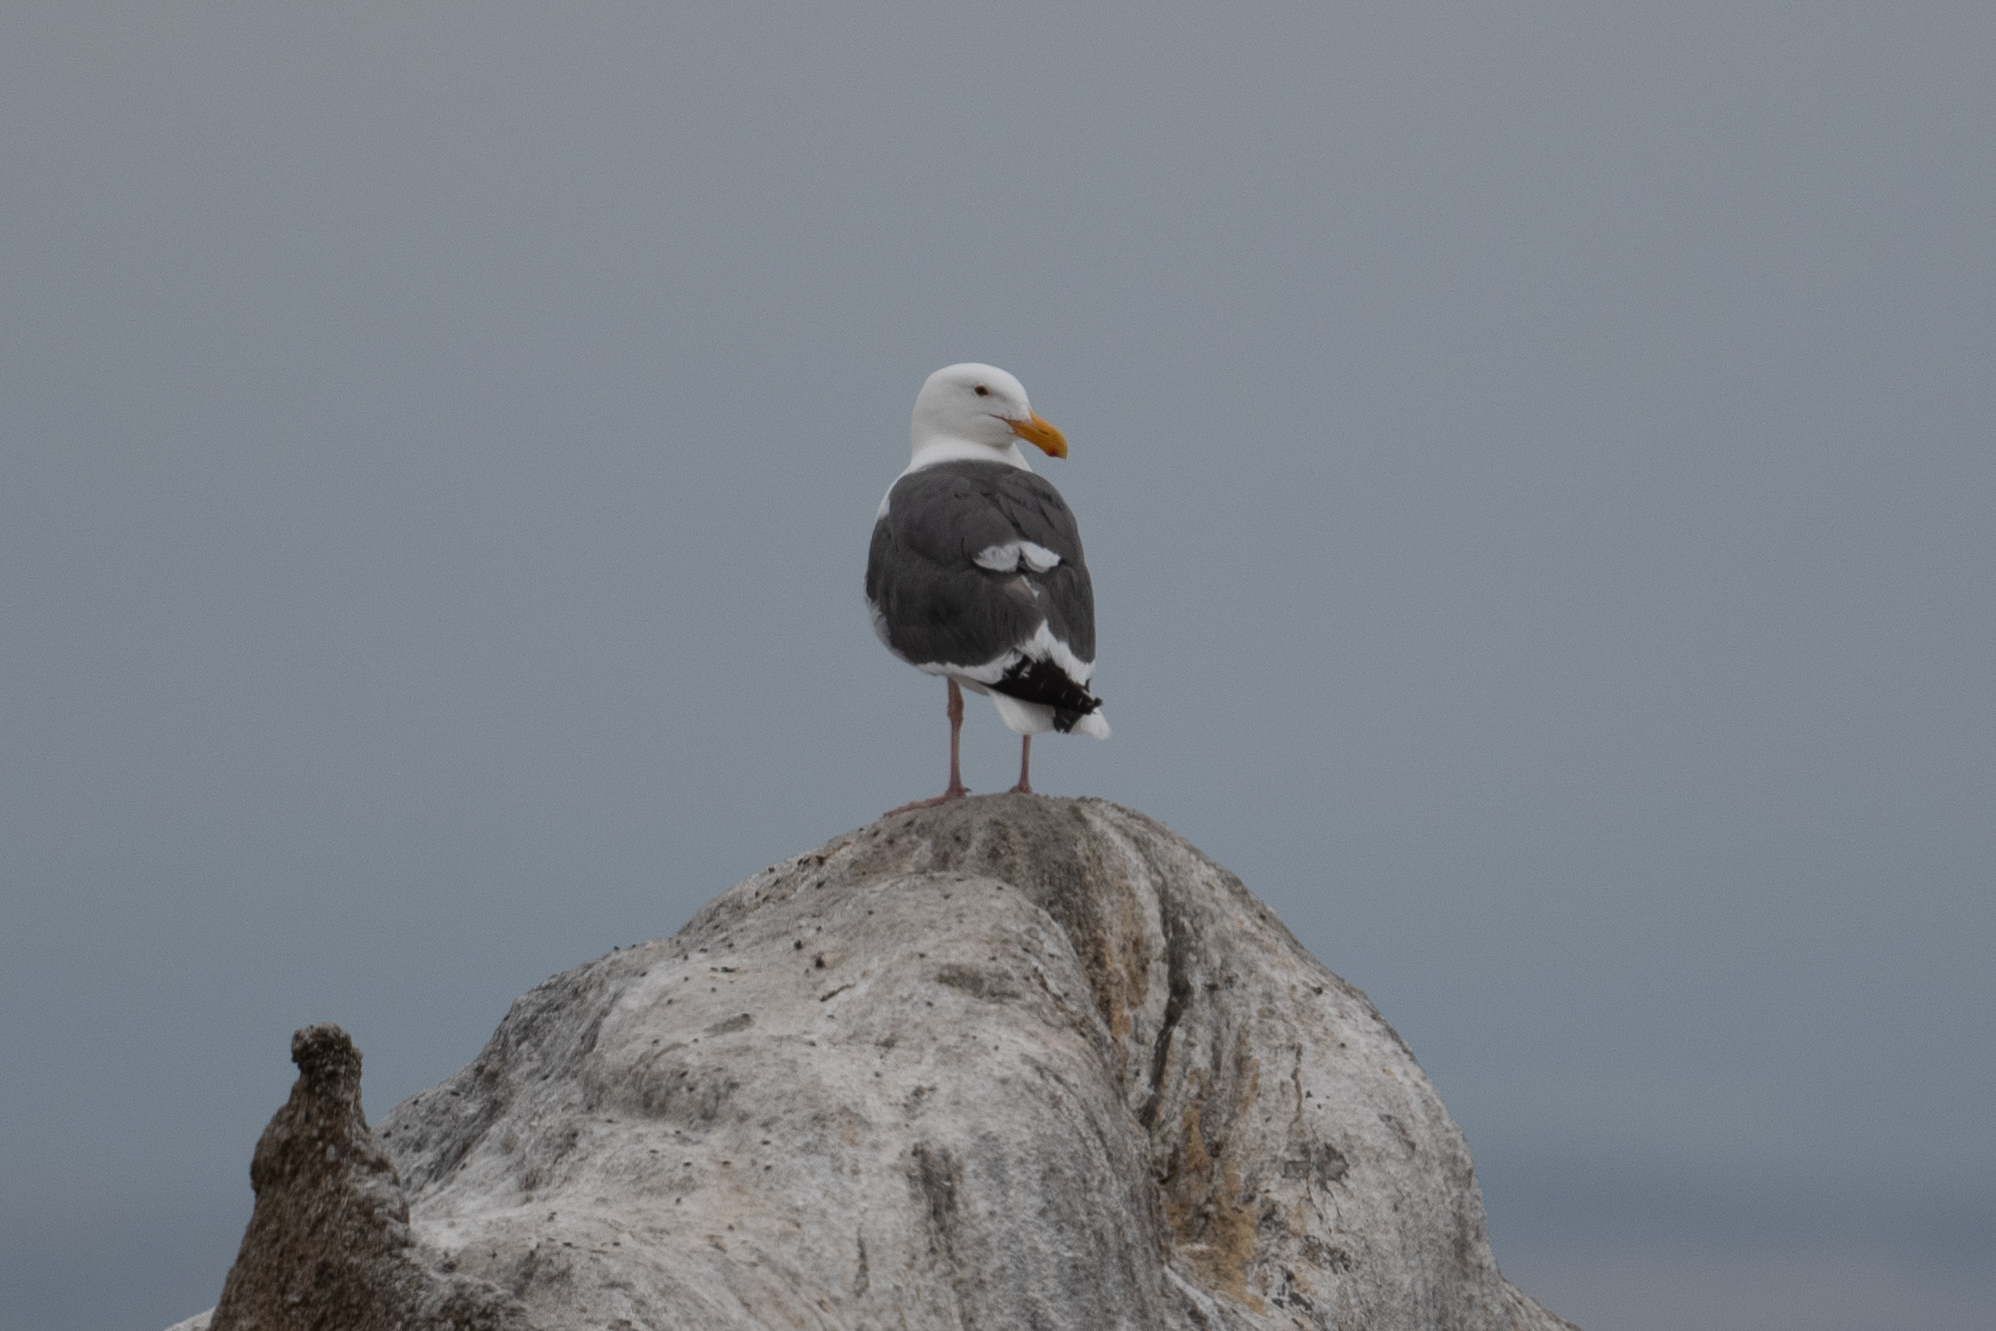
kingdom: Animalia
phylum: Chordata
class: Aves
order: Charadriiformes
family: Laridae
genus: Larus
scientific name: Larus occidentalis
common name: Western gull
